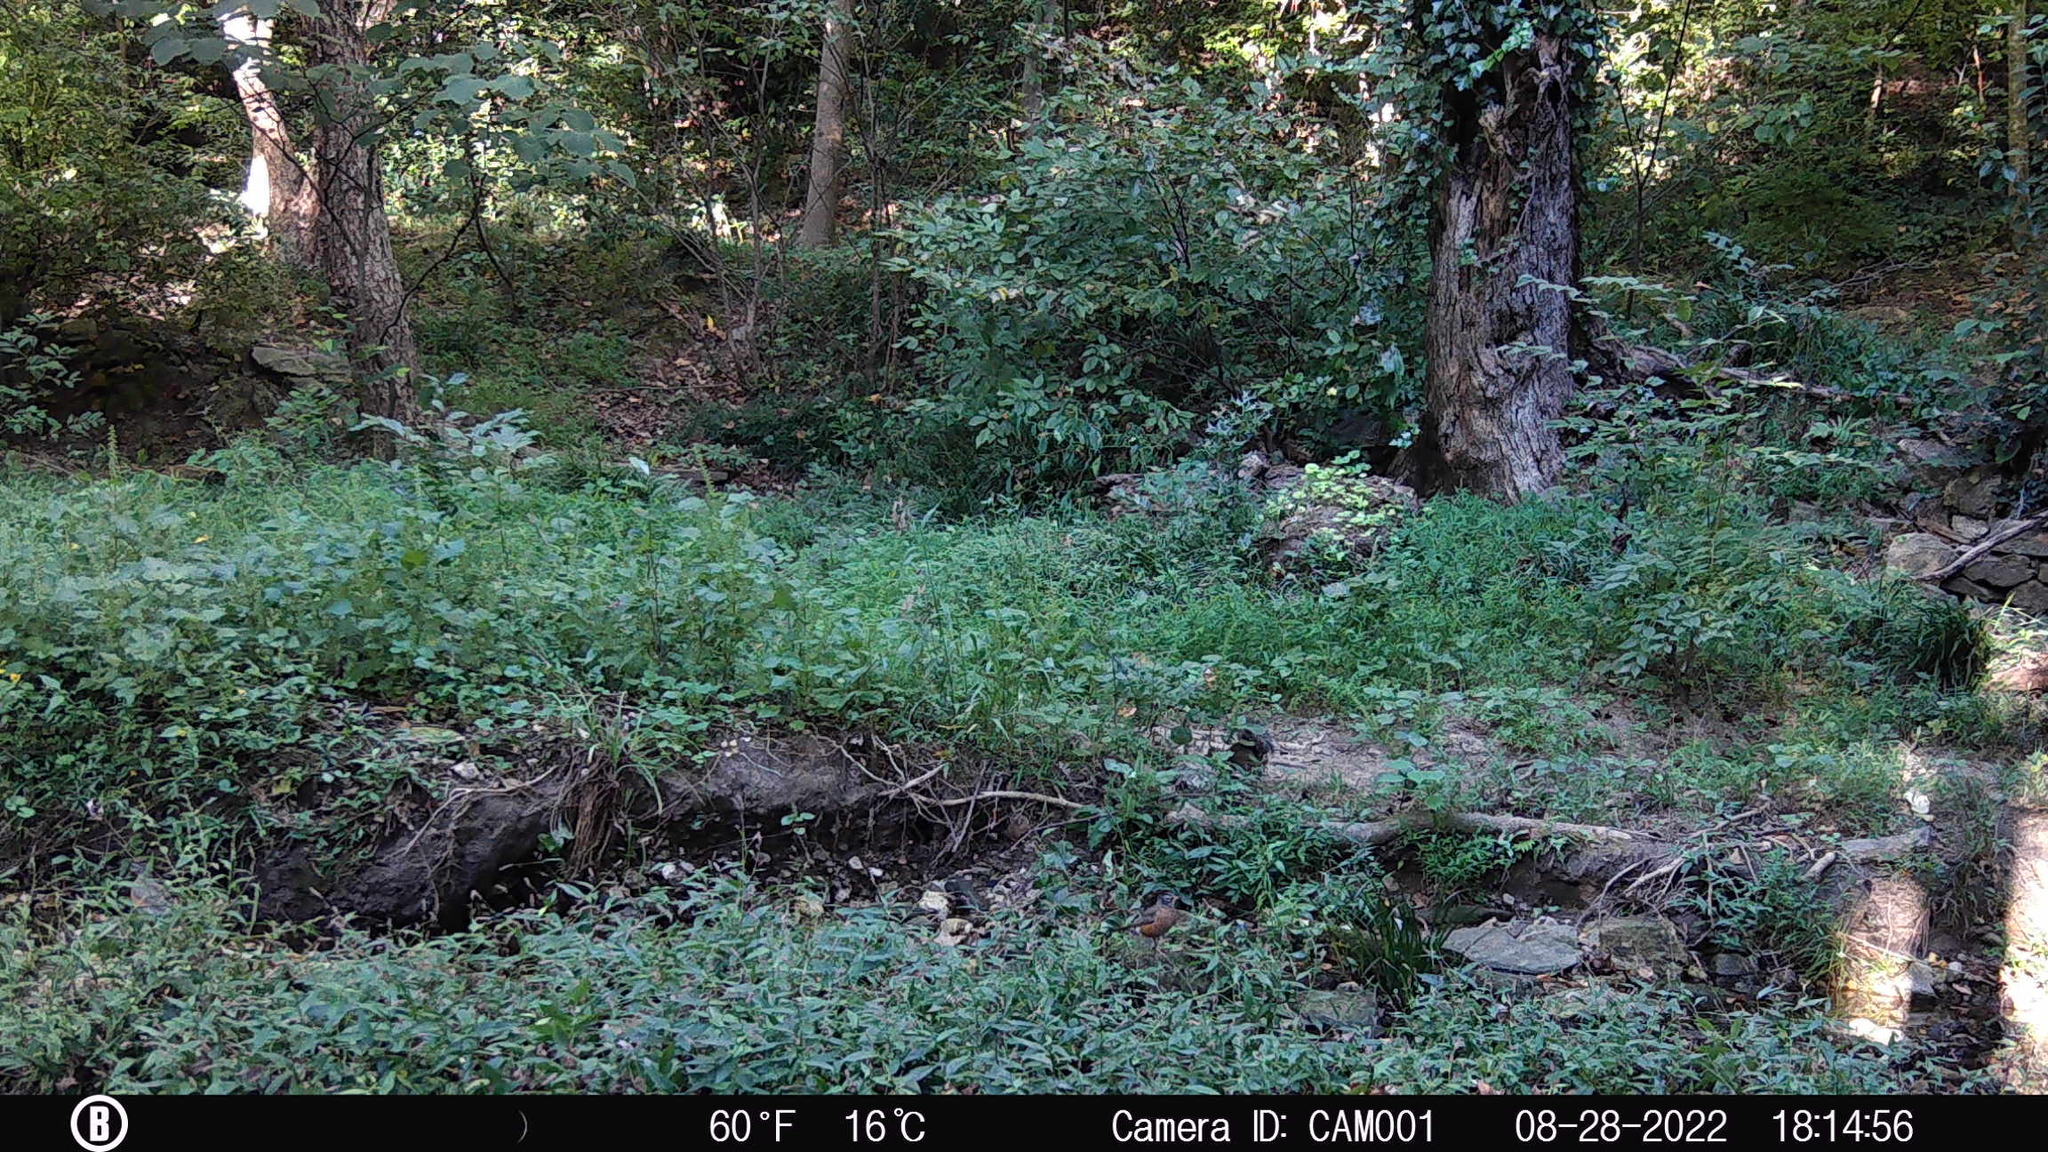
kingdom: Animalia
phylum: Chordata
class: Aves
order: Passeriformes
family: Turdidae
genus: Turdus
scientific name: Turdus migratorius
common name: American robin
